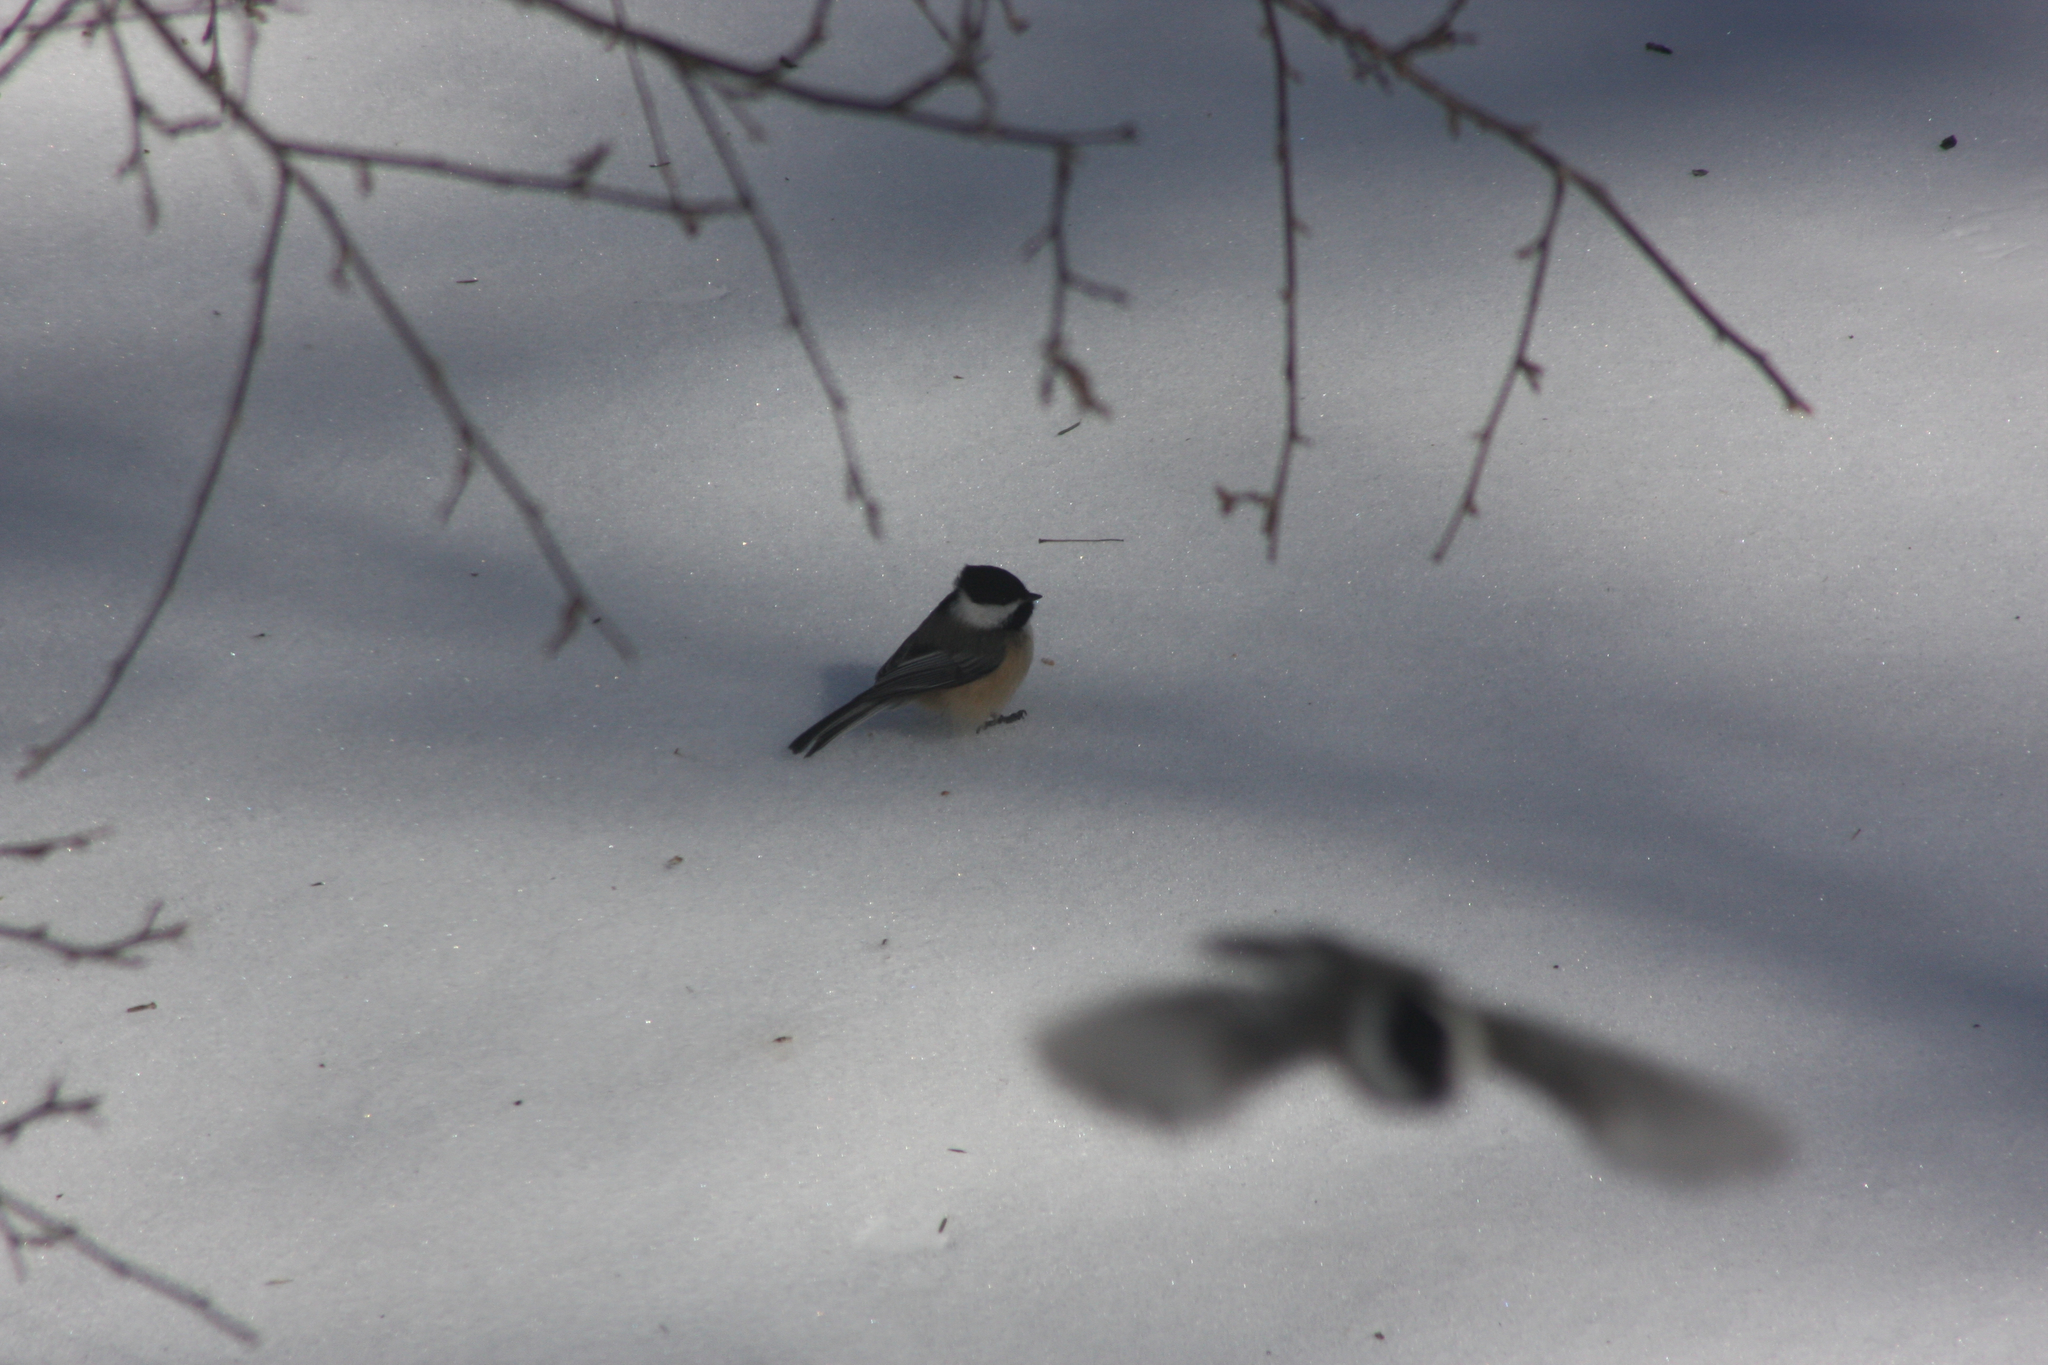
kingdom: Animalia
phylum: Chordata
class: Aves
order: Passeriformes
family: Paridae
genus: Poecile
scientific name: Poecile atricapillus
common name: Black-capped chickadee
